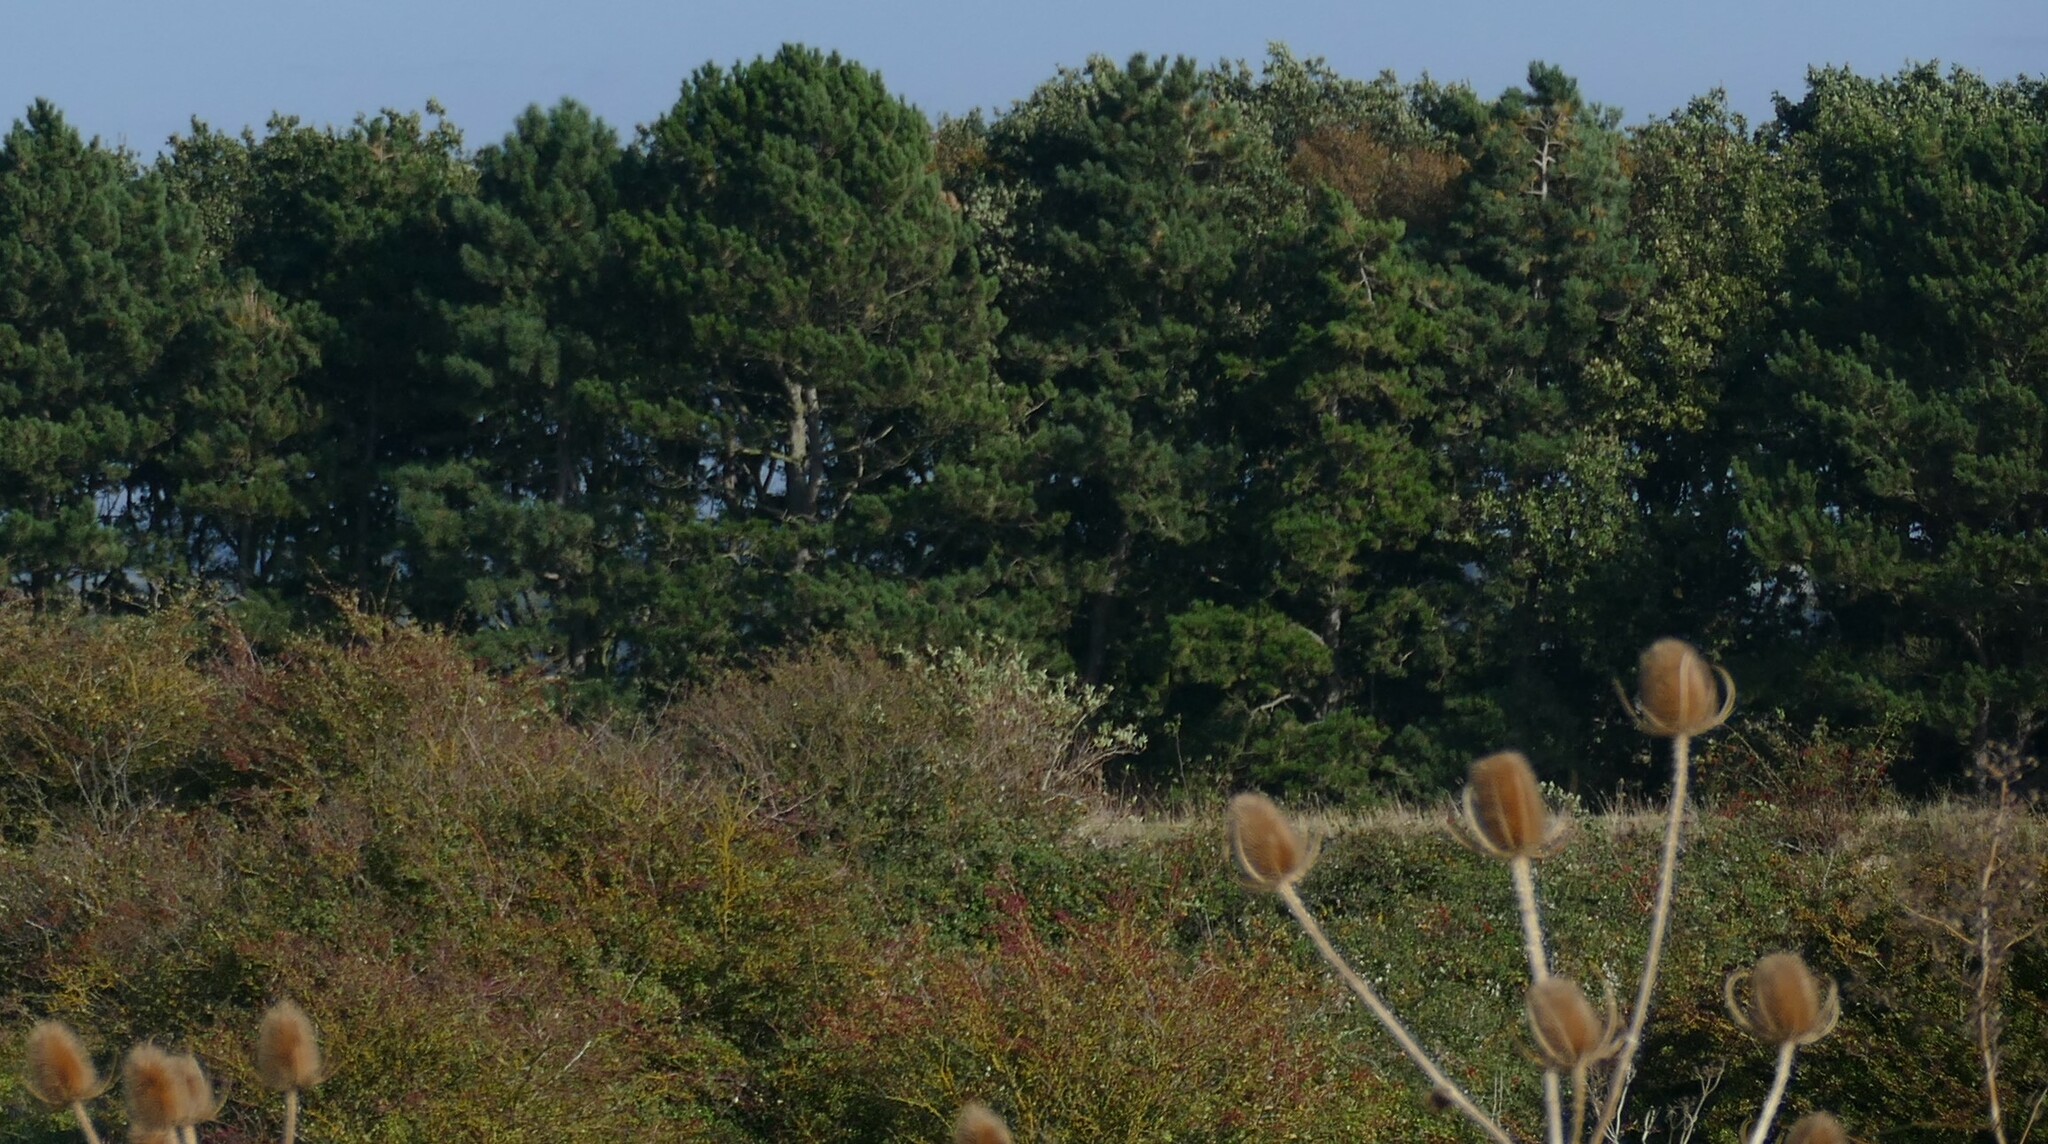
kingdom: Plantae
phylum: Tracheophyta
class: Magnoliopsida
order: Dipsacales
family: Caprifoliaceae
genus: Dipsacus
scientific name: Dipsacus fullonum
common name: Teasel
